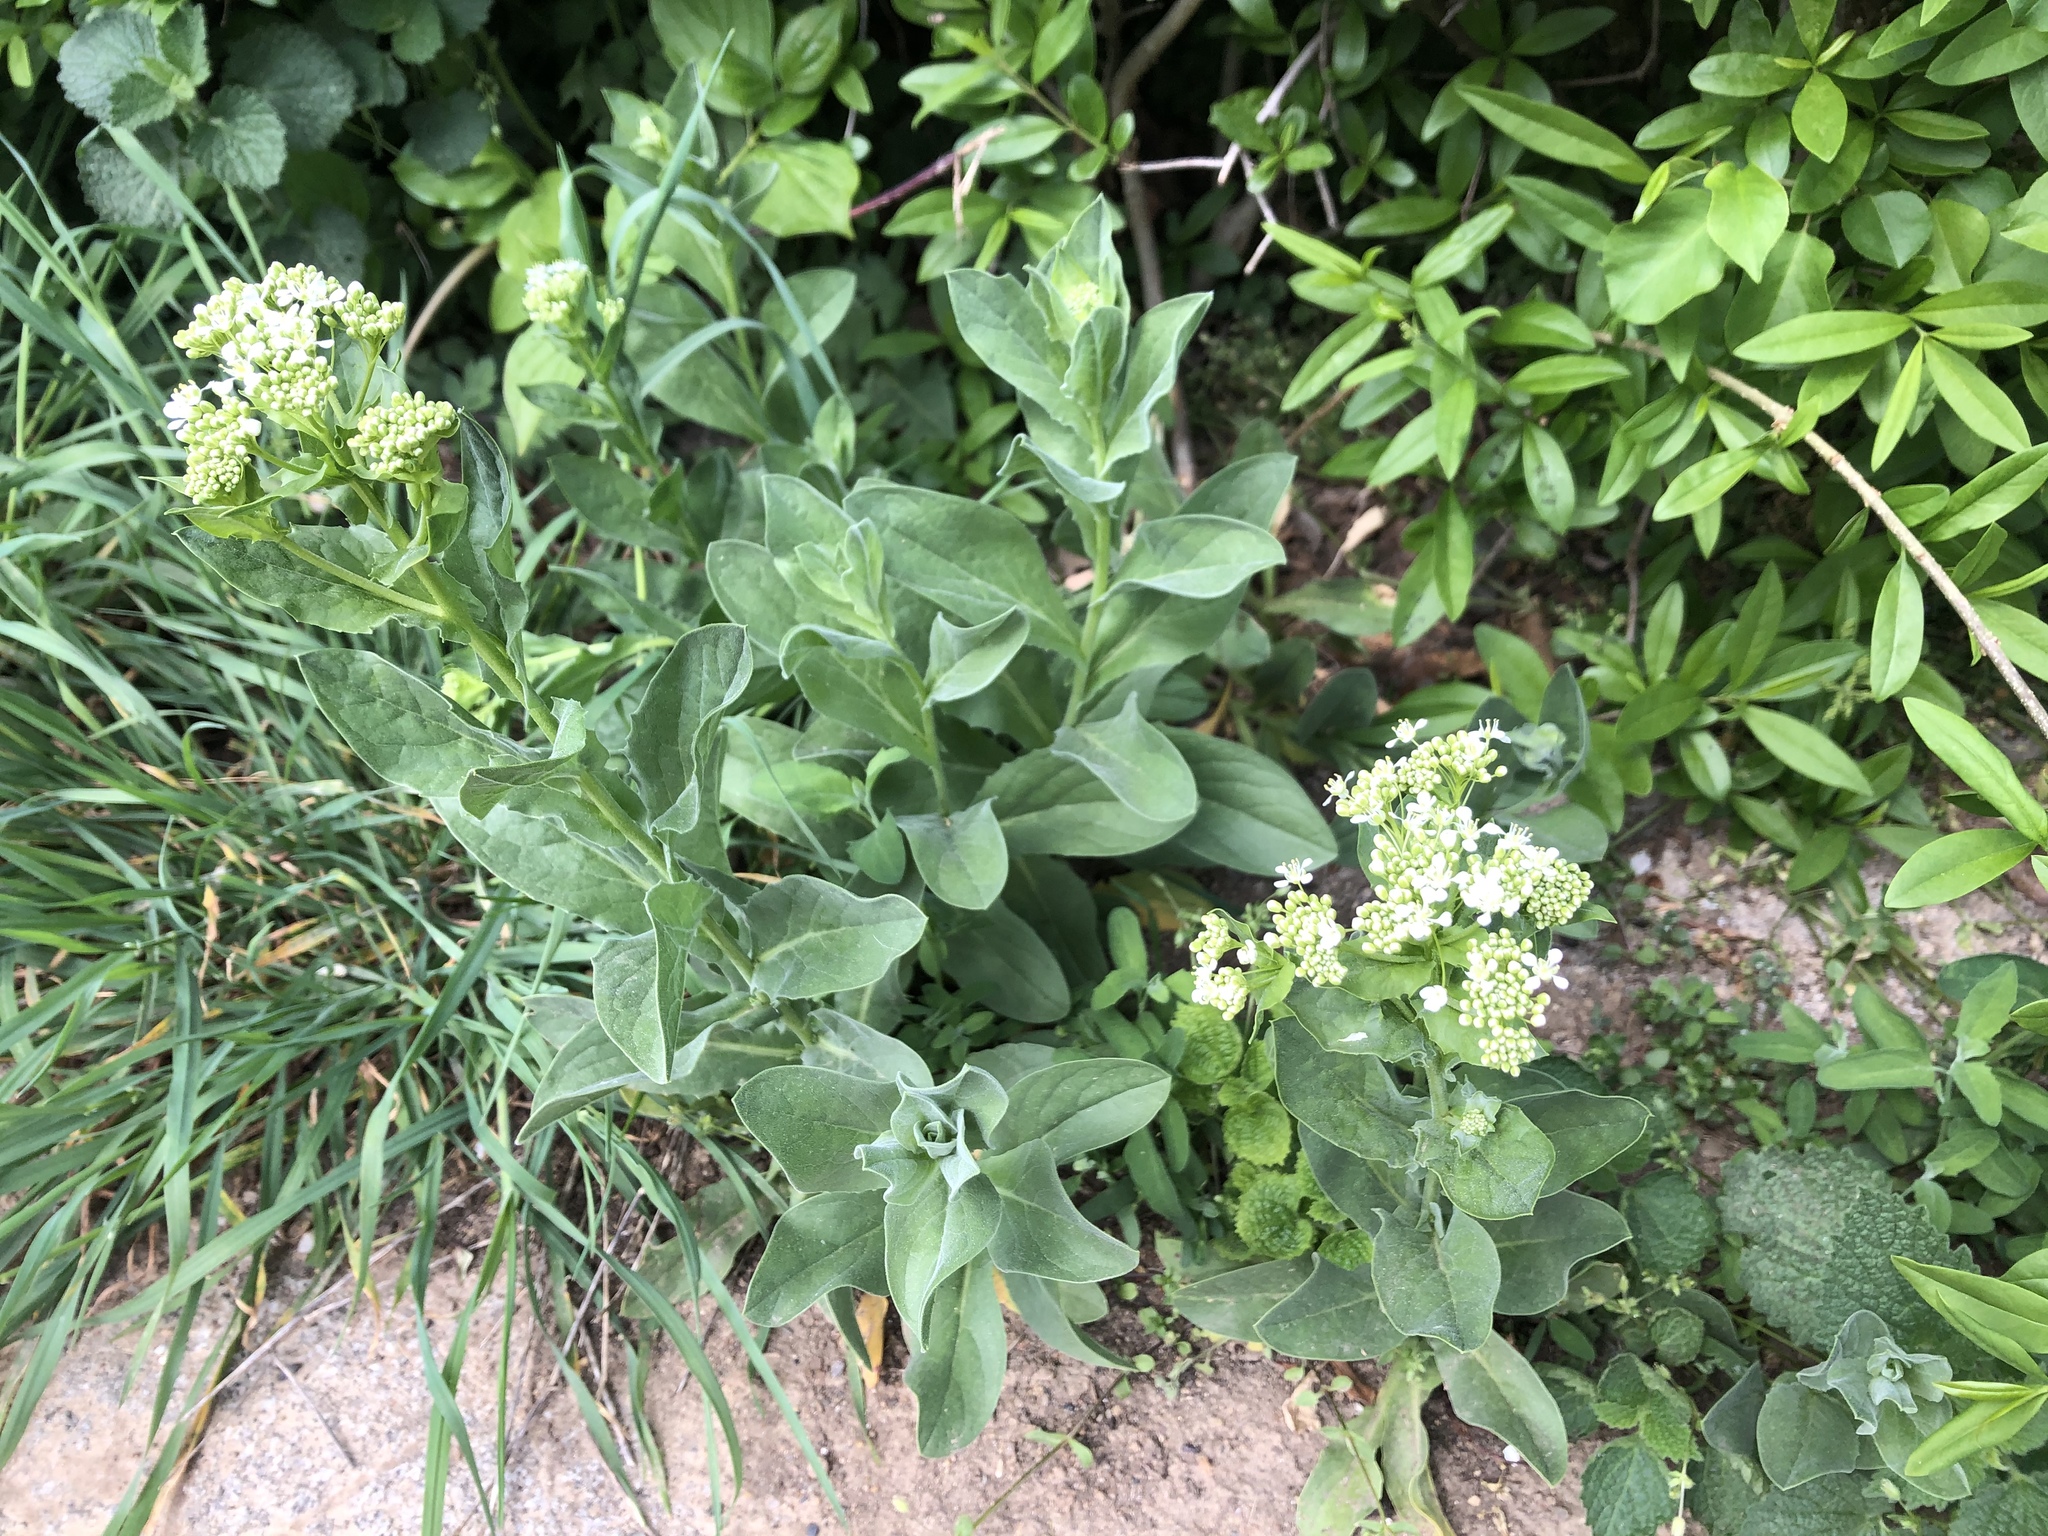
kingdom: Plantae
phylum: Tracheophyta
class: Magnoliopsida
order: Brassicales
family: Brassicaceae
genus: Lepidium
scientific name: Lepidium draba
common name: Hoary cress
